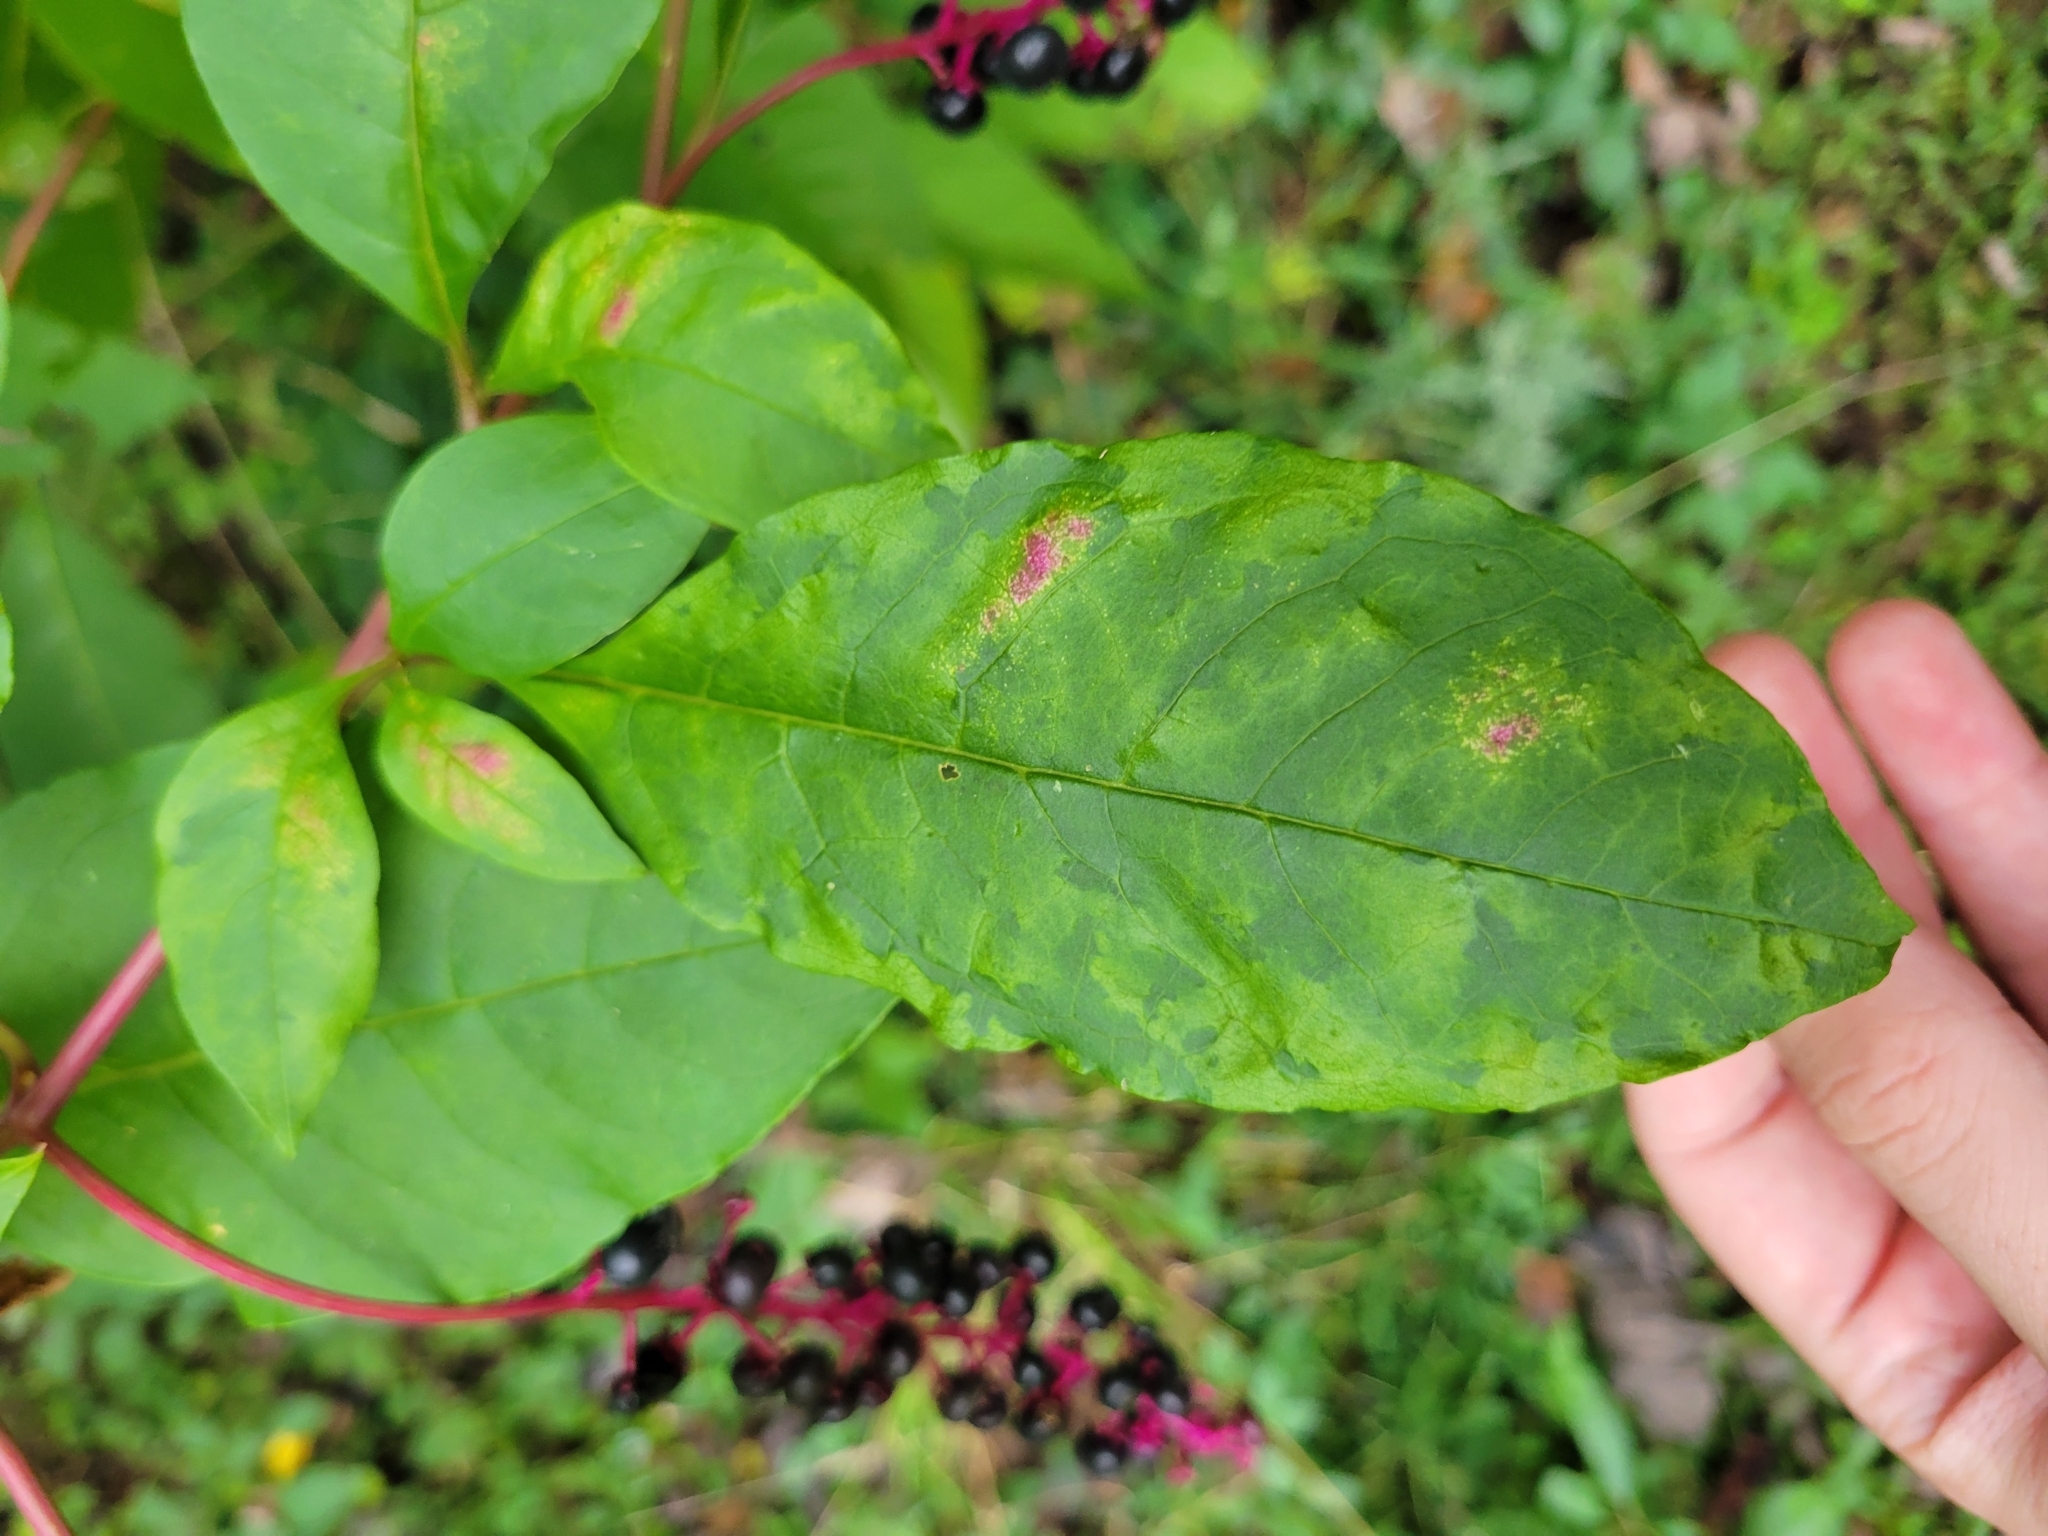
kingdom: Viruses
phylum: Pisuviricota
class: Stelpaviricetes
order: Patatavirales
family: Potyviridae
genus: Potyvirus
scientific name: Potyvirus Pokeweed mosaic virus
